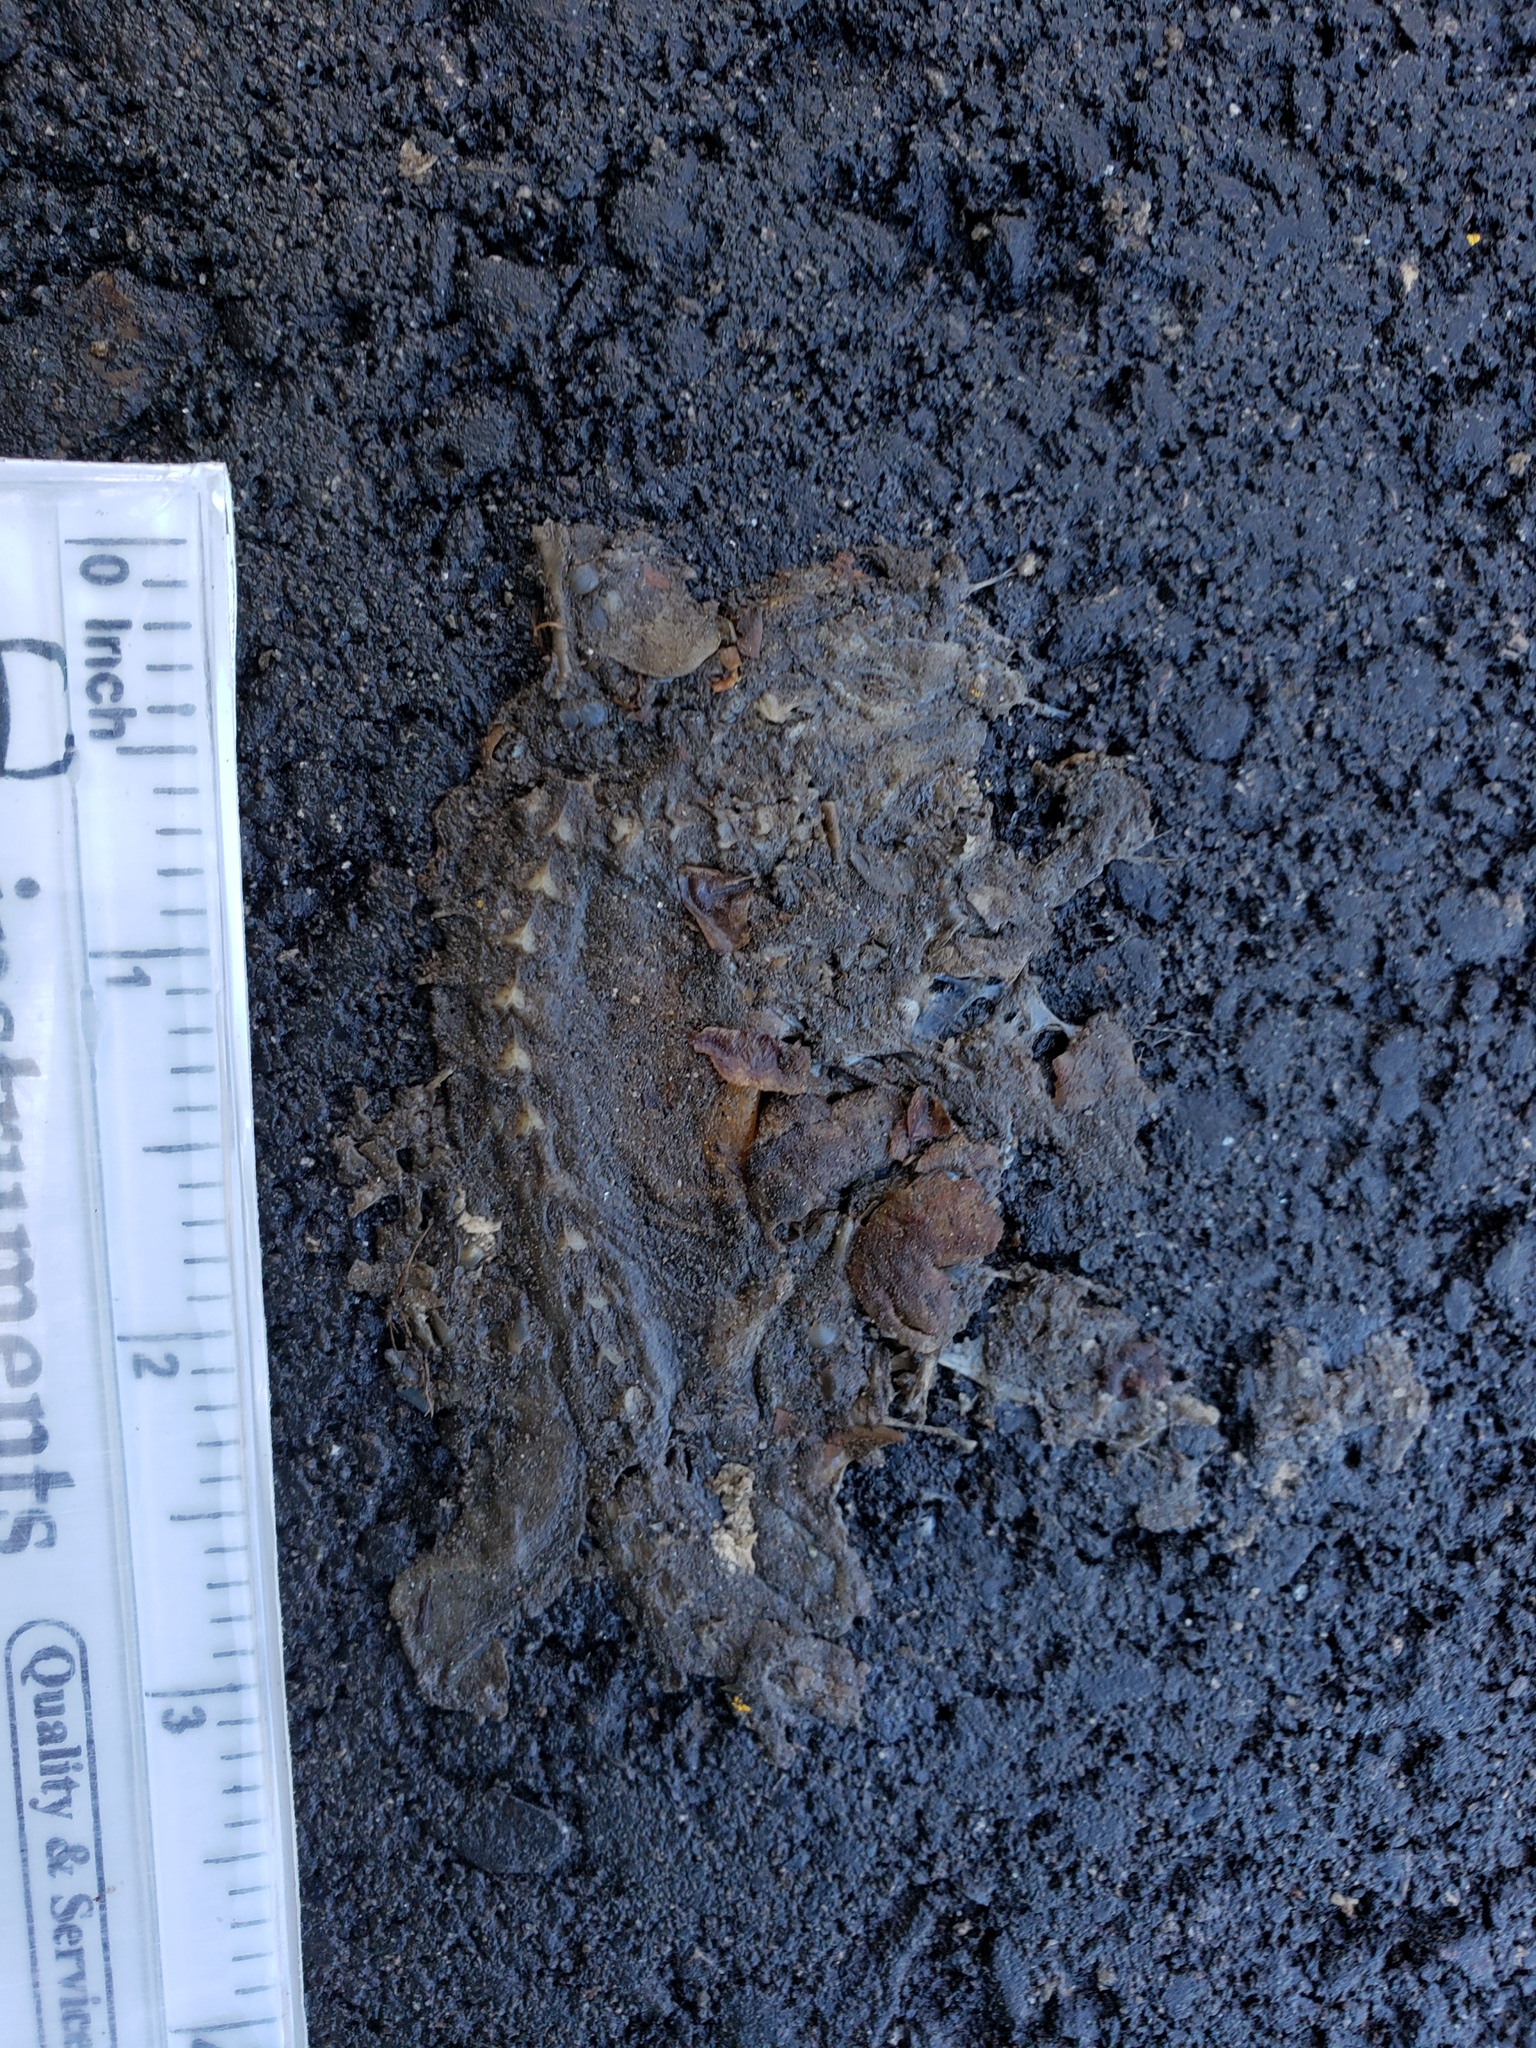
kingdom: Animalia
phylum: Chordata
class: Amphibia
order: Caudata
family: Salamandridae
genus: Taricha
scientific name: Taricha
